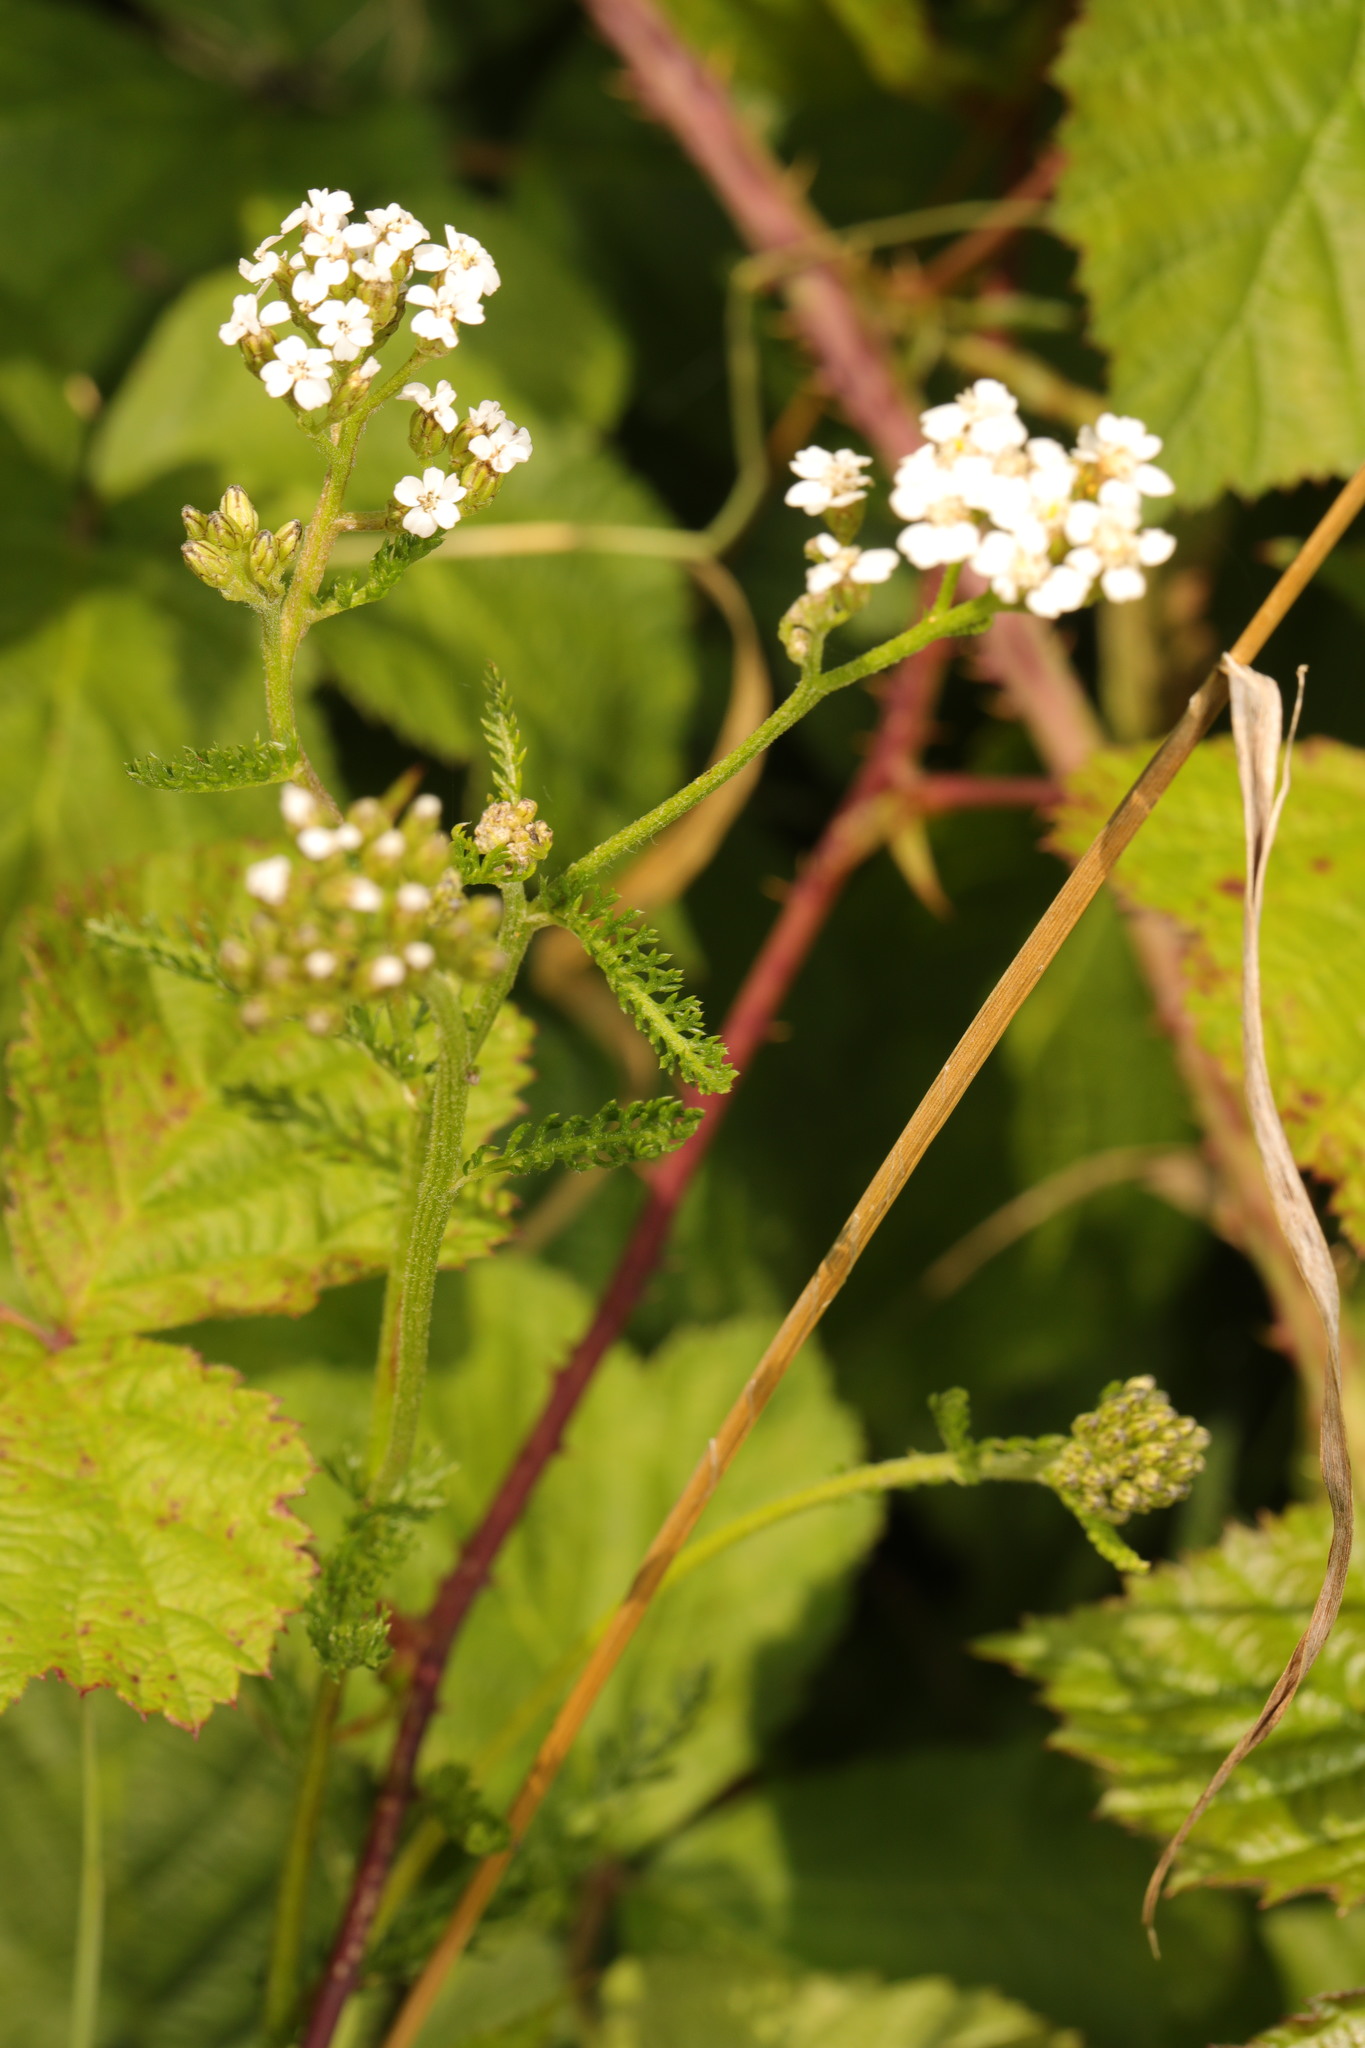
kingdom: Plantae
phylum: Tracheophyta
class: Magnoliopsida
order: Asterales
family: Asteraceae
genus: Achillea
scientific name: Achillea millefolium
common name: Yarrow
